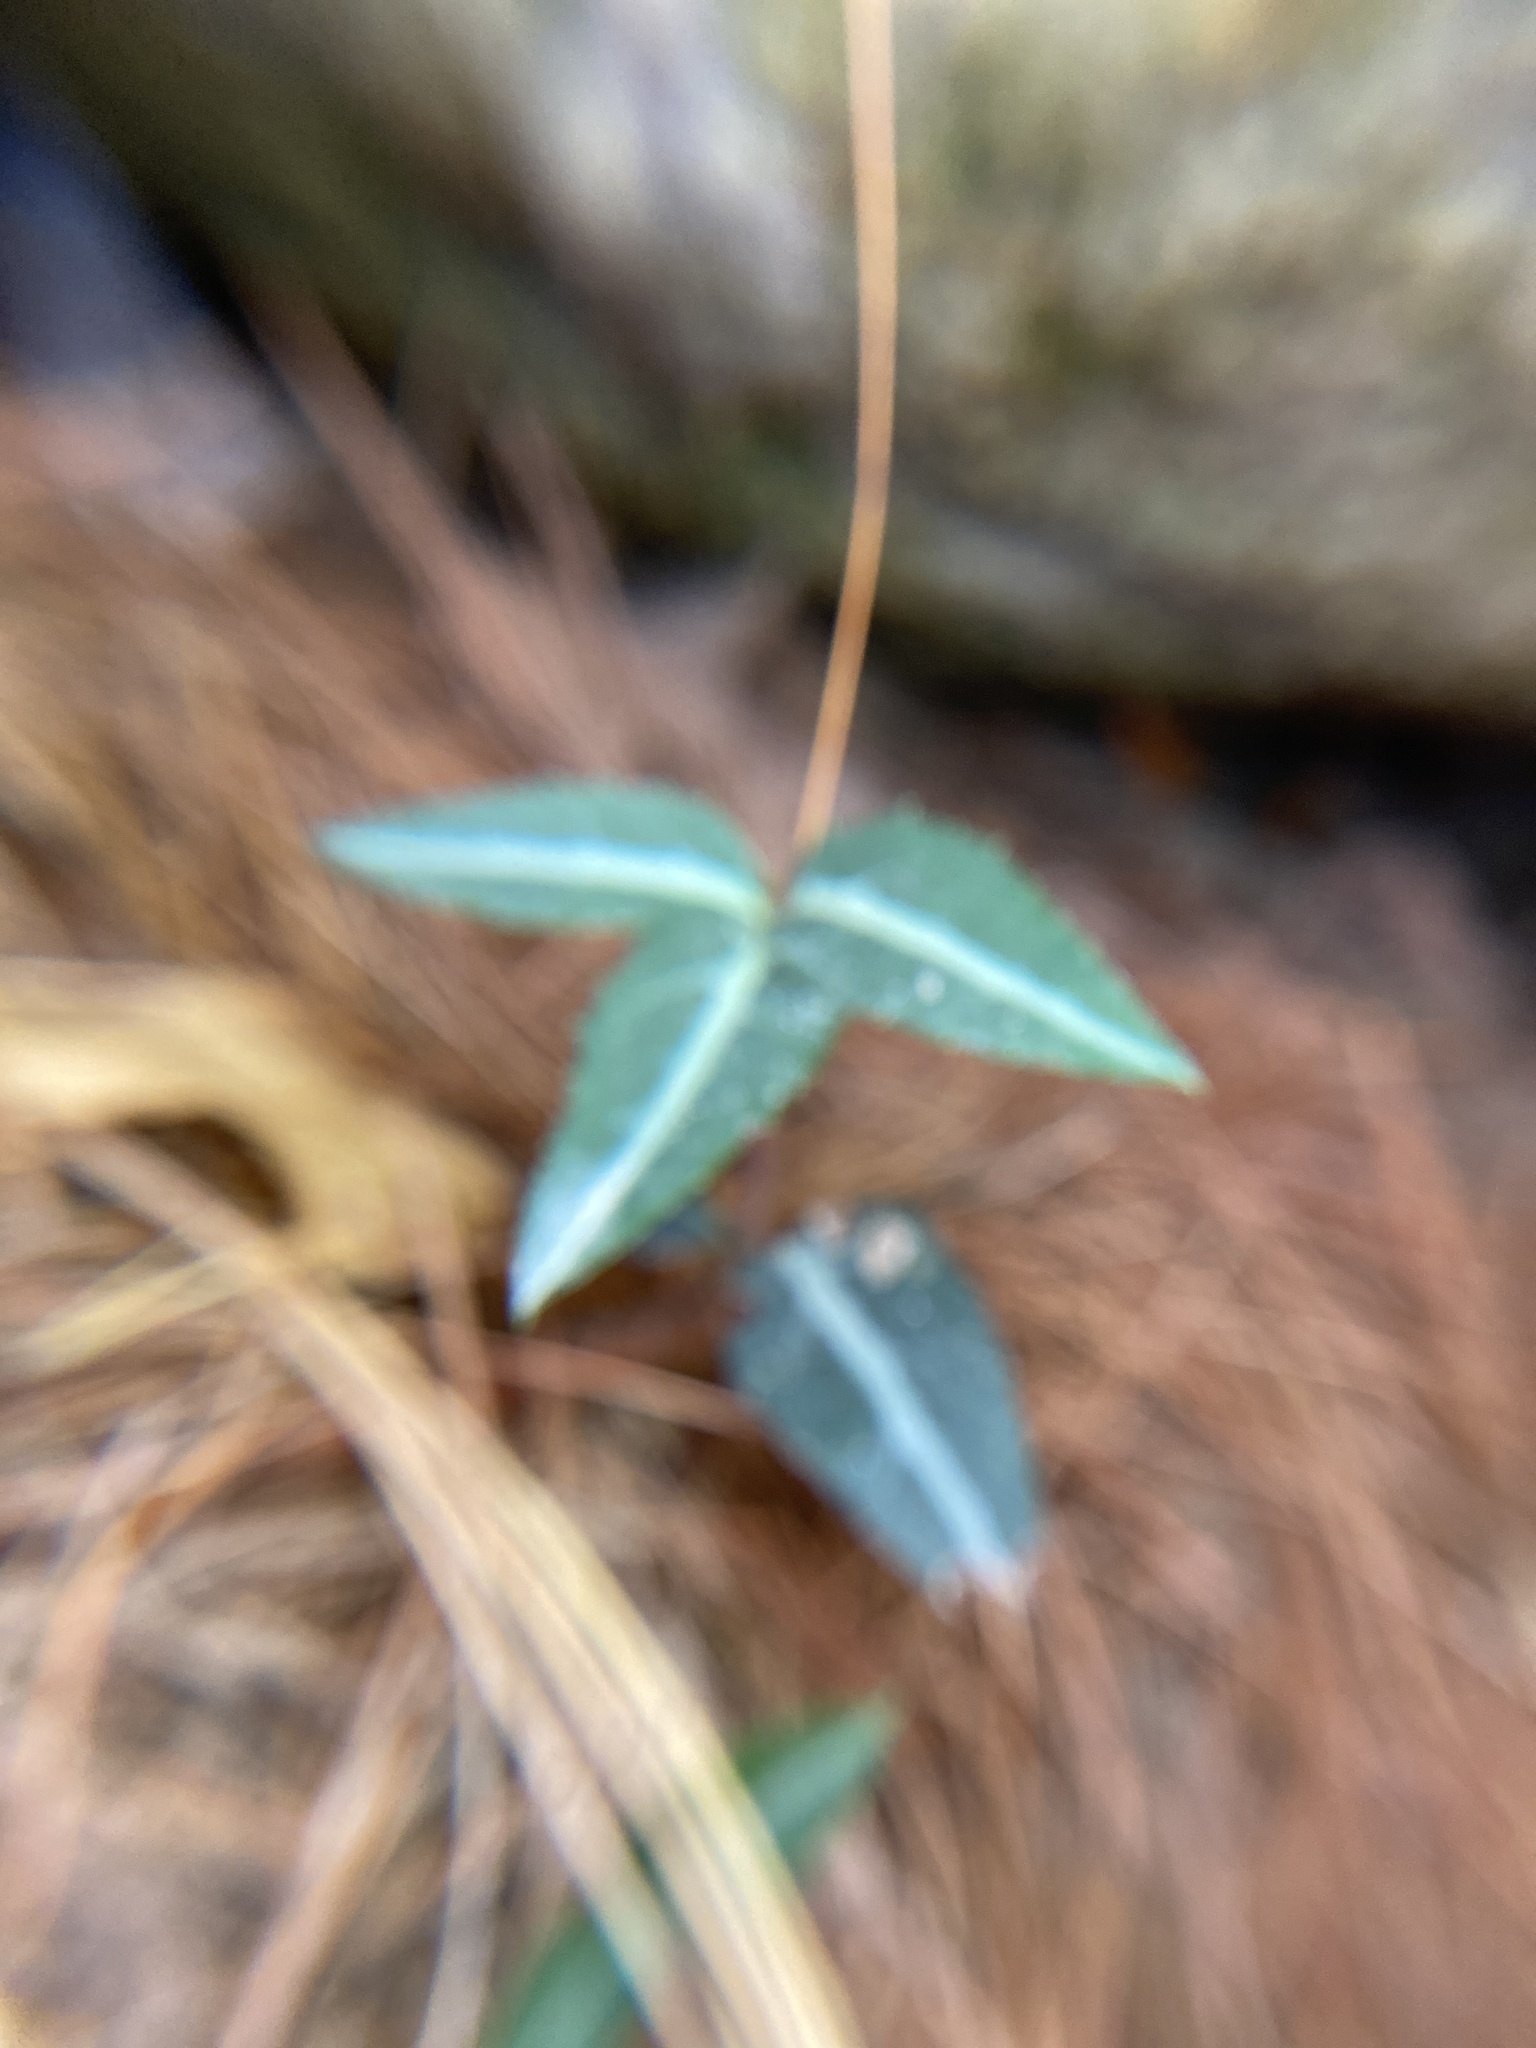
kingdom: Plantae
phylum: Tracheophyta
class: Magnoliopsida
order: Ericales
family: Ericaceae
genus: Chimaphila
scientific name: Chimaphila maculata
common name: Spotted pipsissewa
